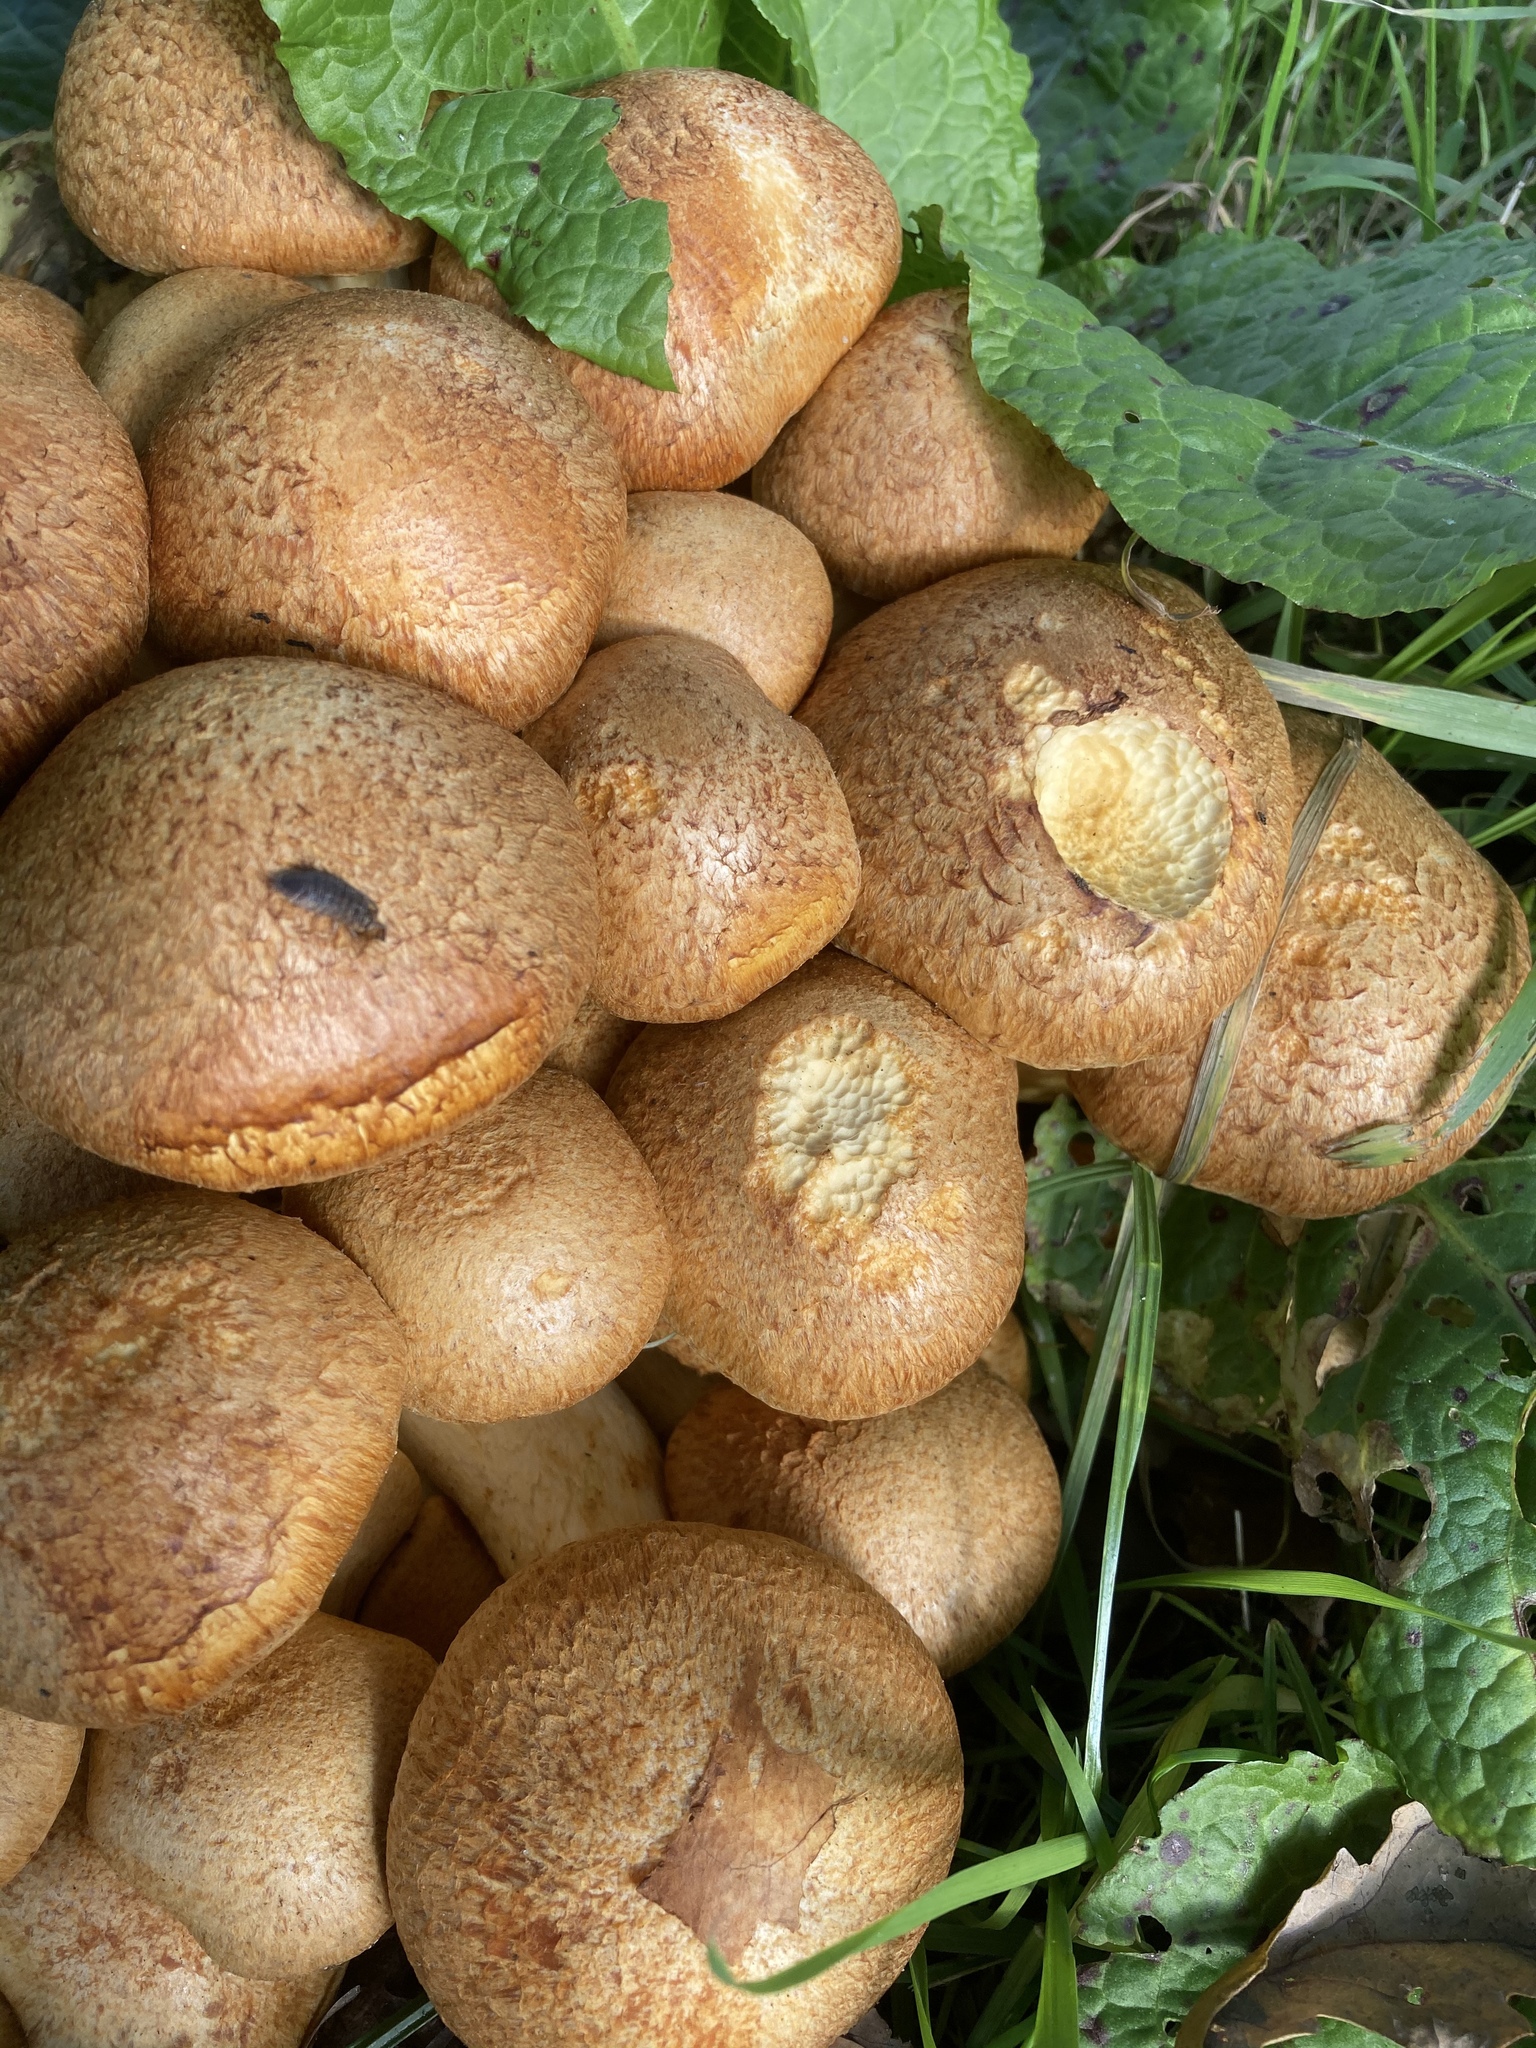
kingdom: Fungi
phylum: Basidiomycota
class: Agaricomycetes
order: Agaricales
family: Hymenogastraceae
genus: Gymnopilus
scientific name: Gymnopilus junonius
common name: Spectacular rustgill
